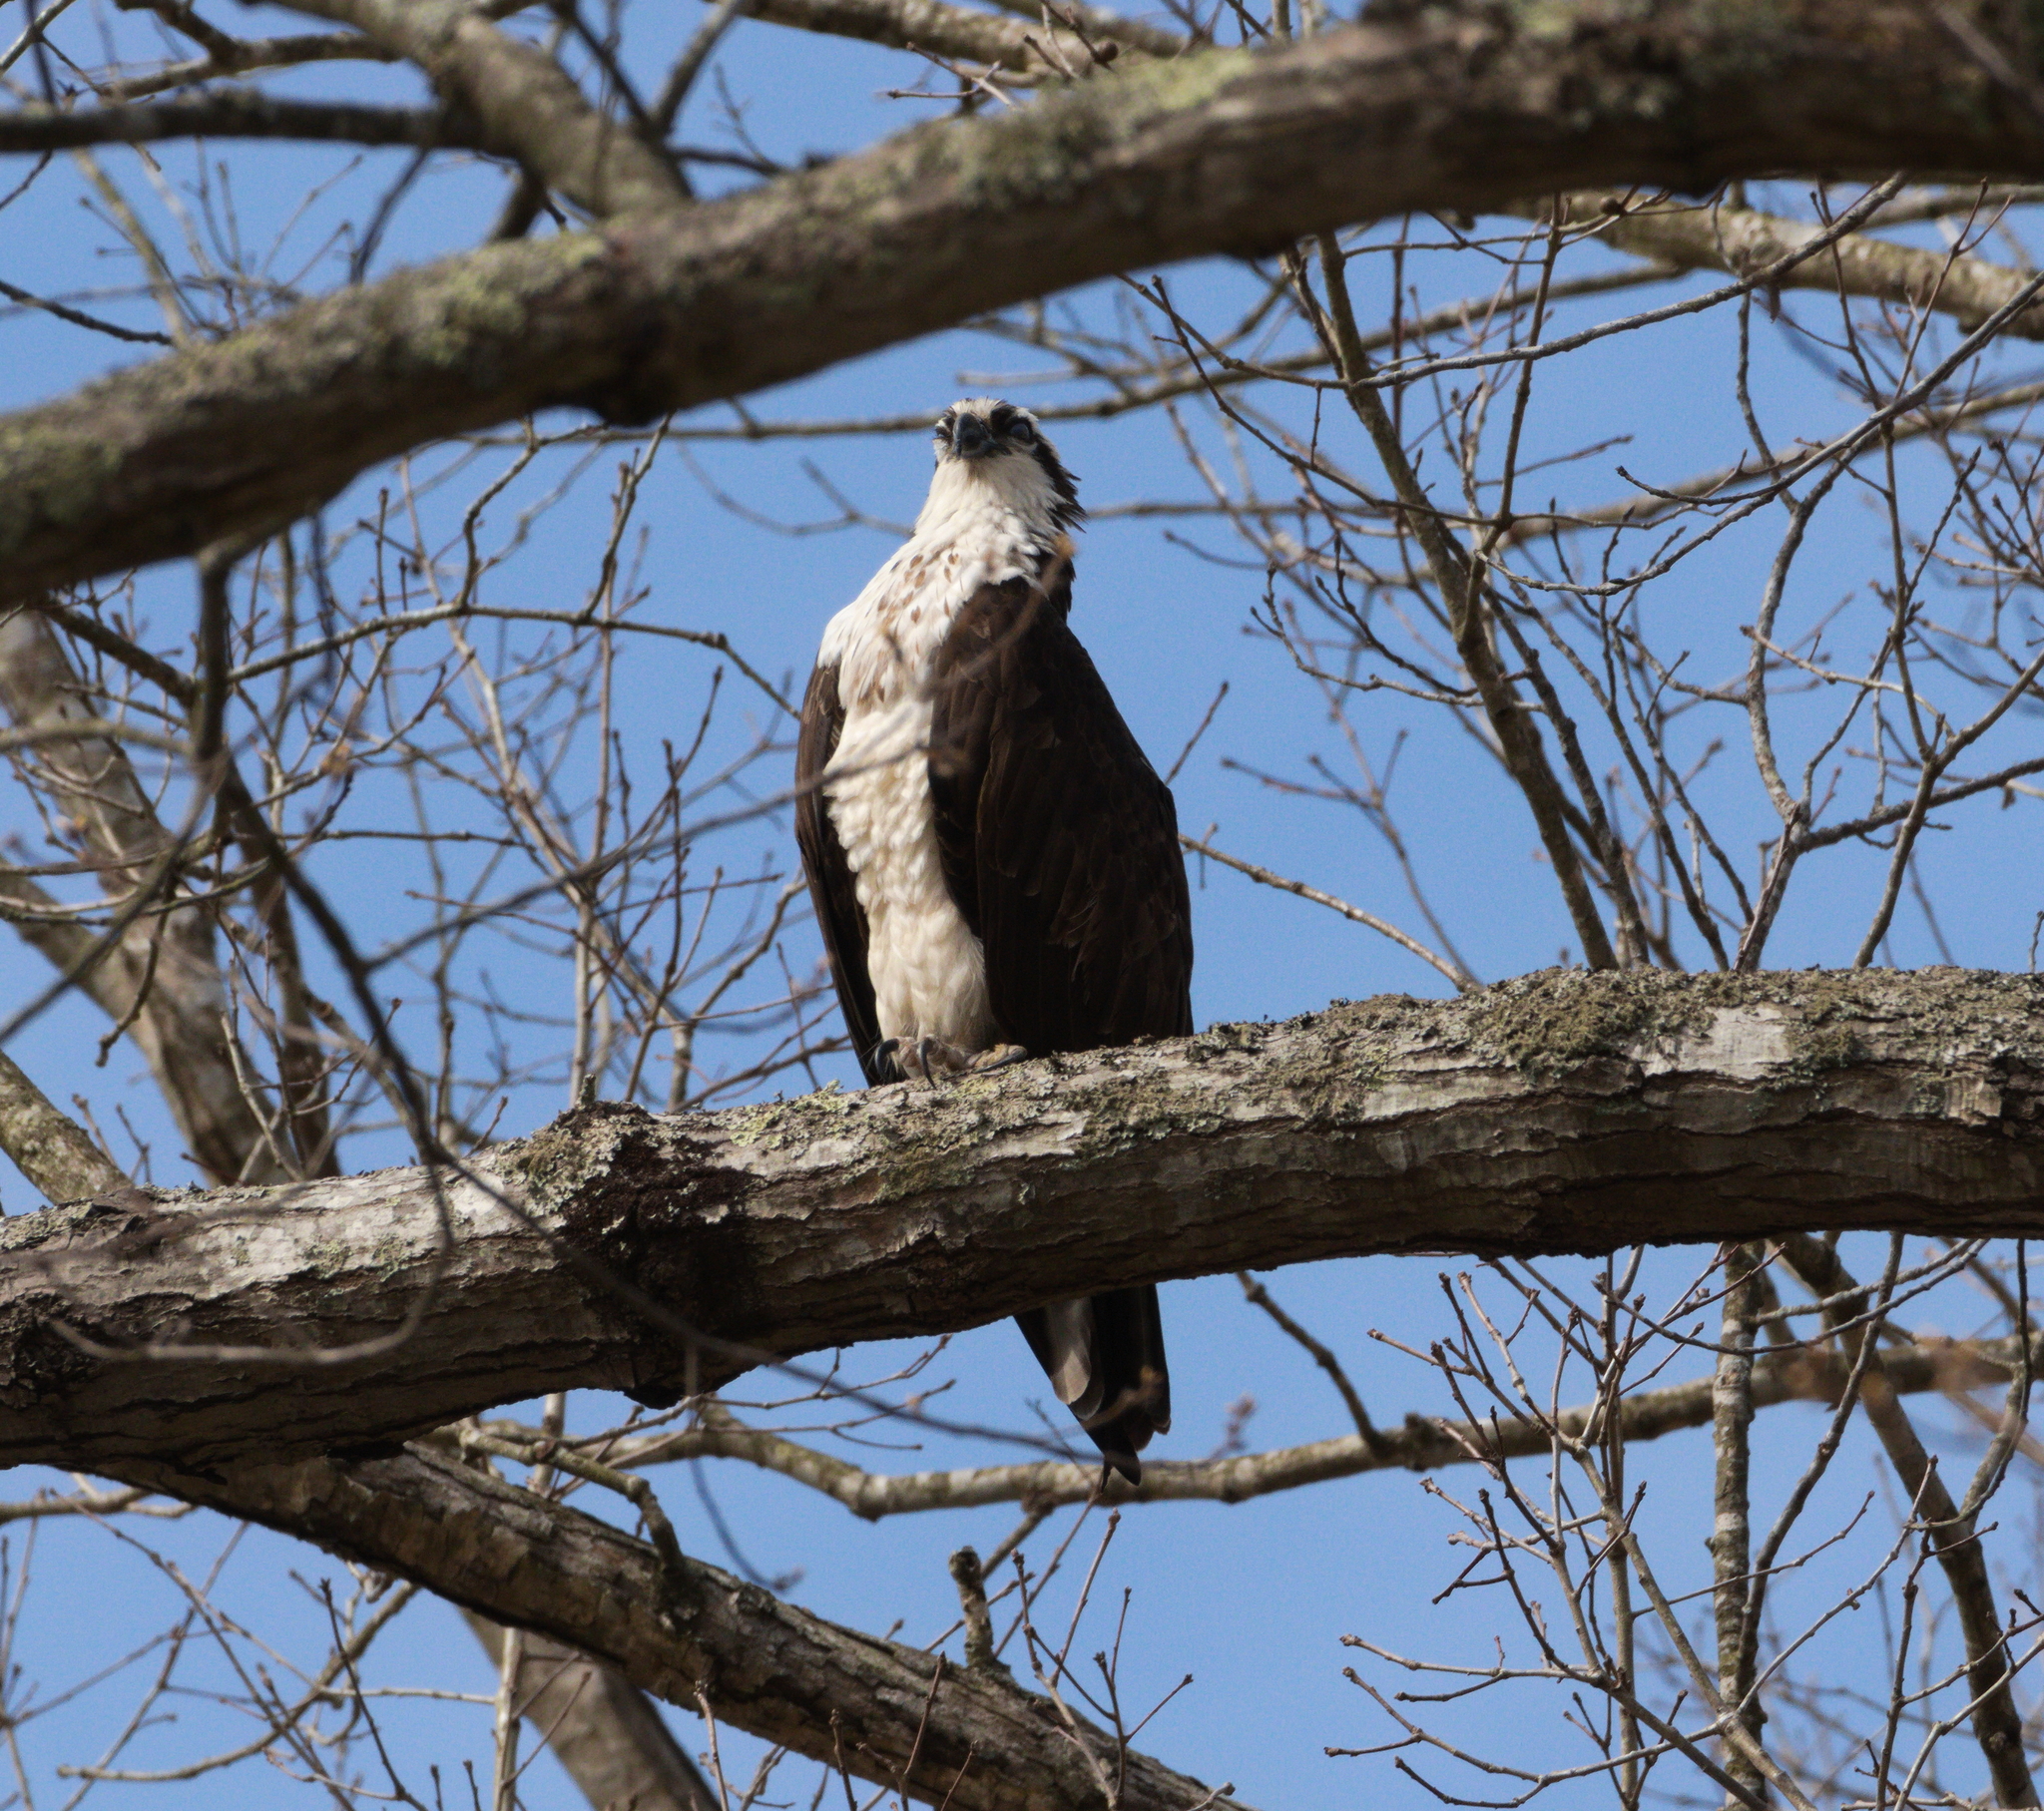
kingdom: Animalia
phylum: Chordata
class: Aves
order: Accipitriformes
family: Pandionidae
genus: Pandion
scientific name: Pandion haliaetus
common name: Osprey
